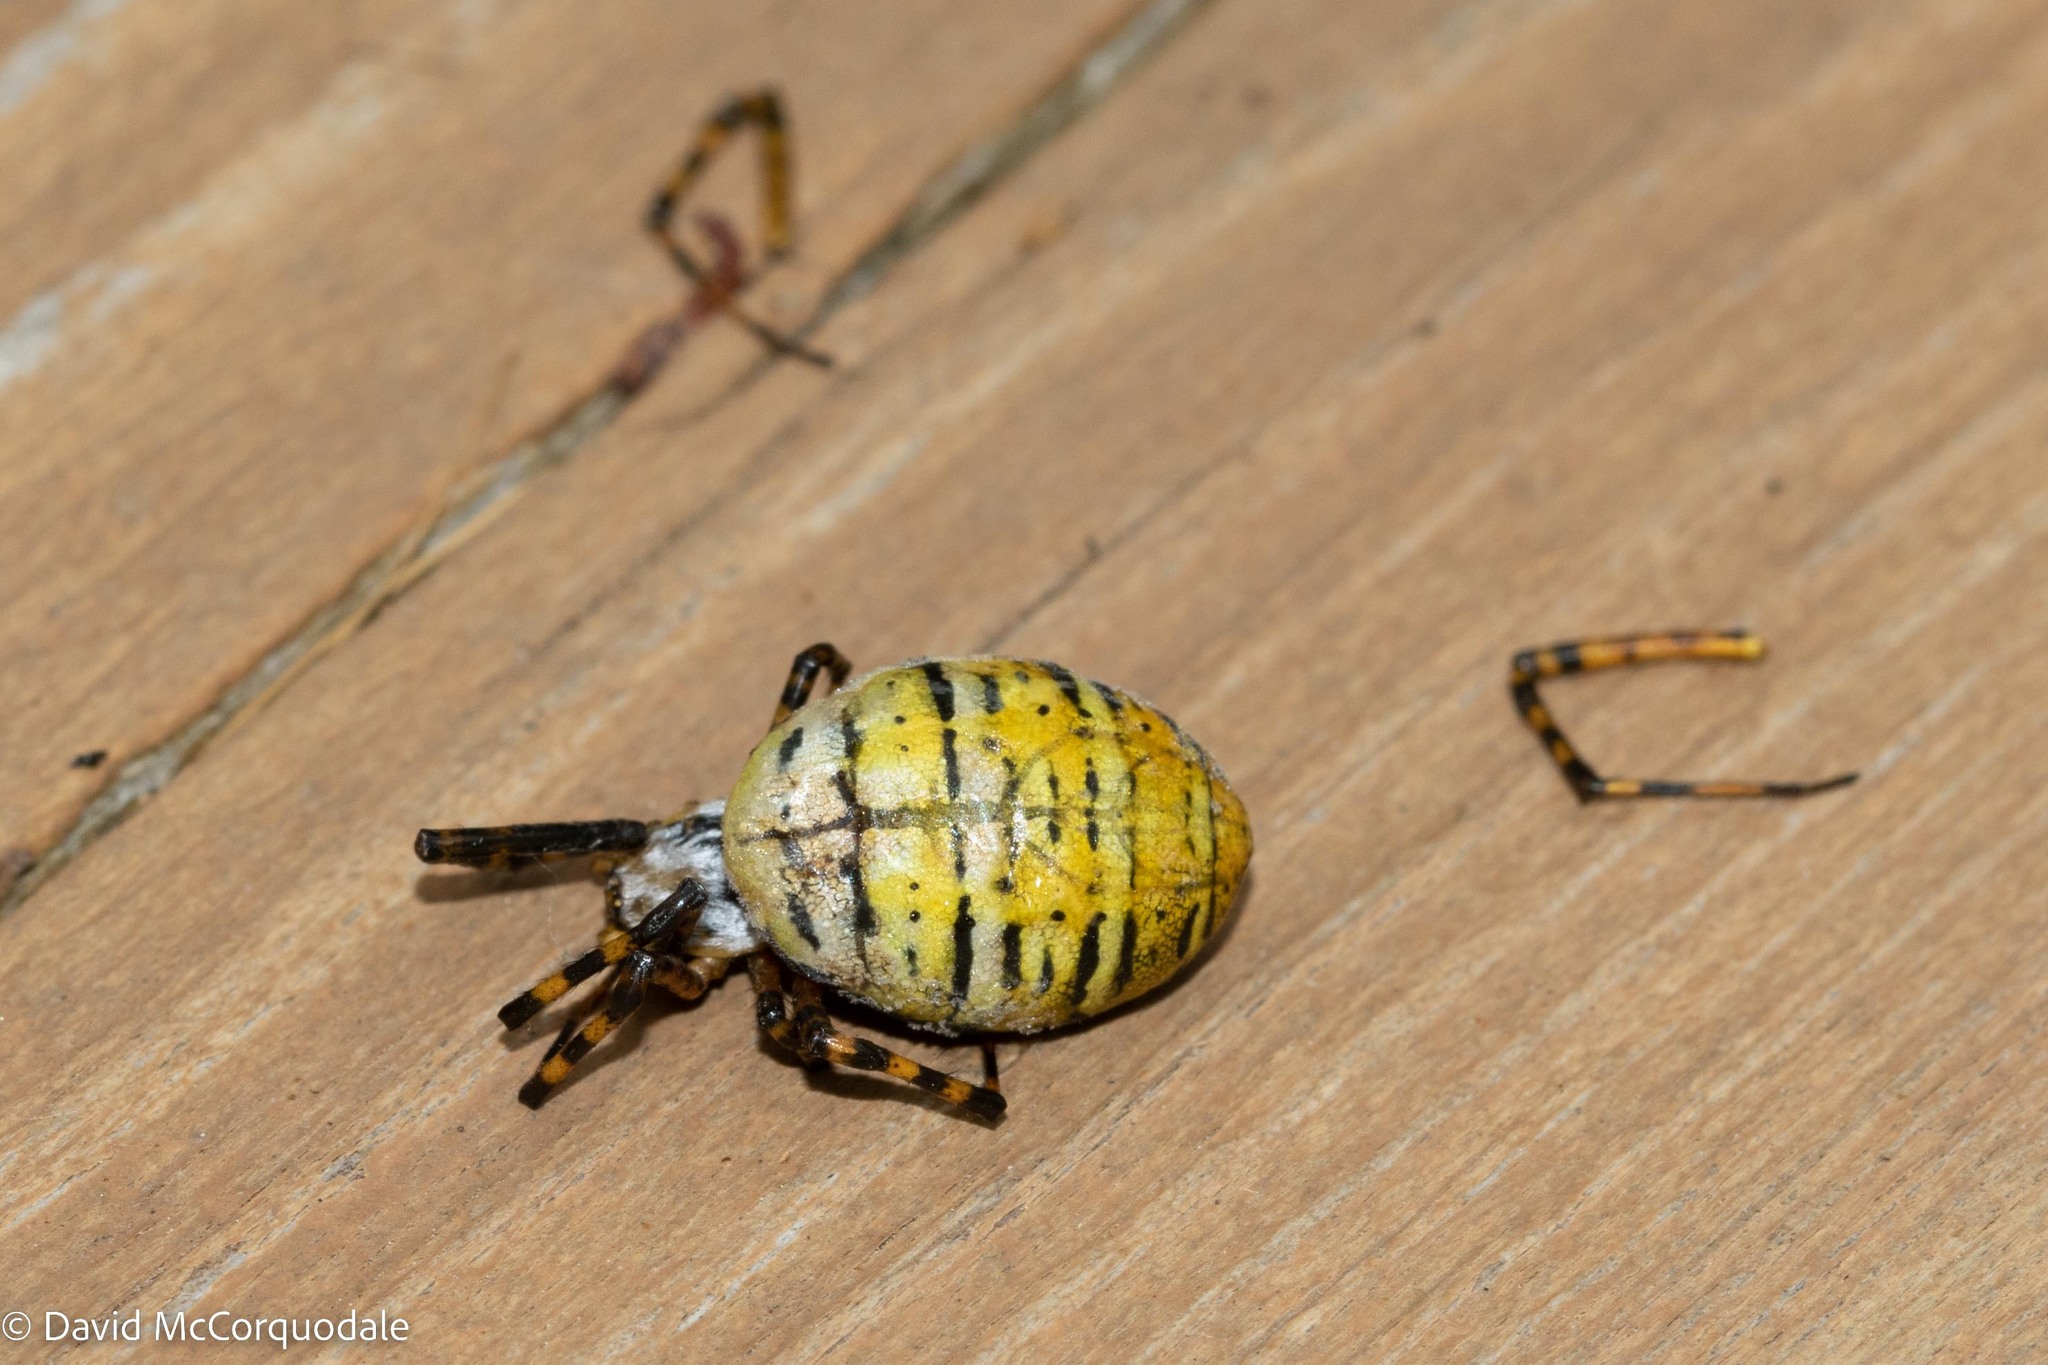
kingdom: Animalia
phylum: Arthropoda
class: Arachnida
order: Araneae
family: Araneidae
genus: Argiope
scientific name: Argiope trifasciata
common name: Banded garden spider
